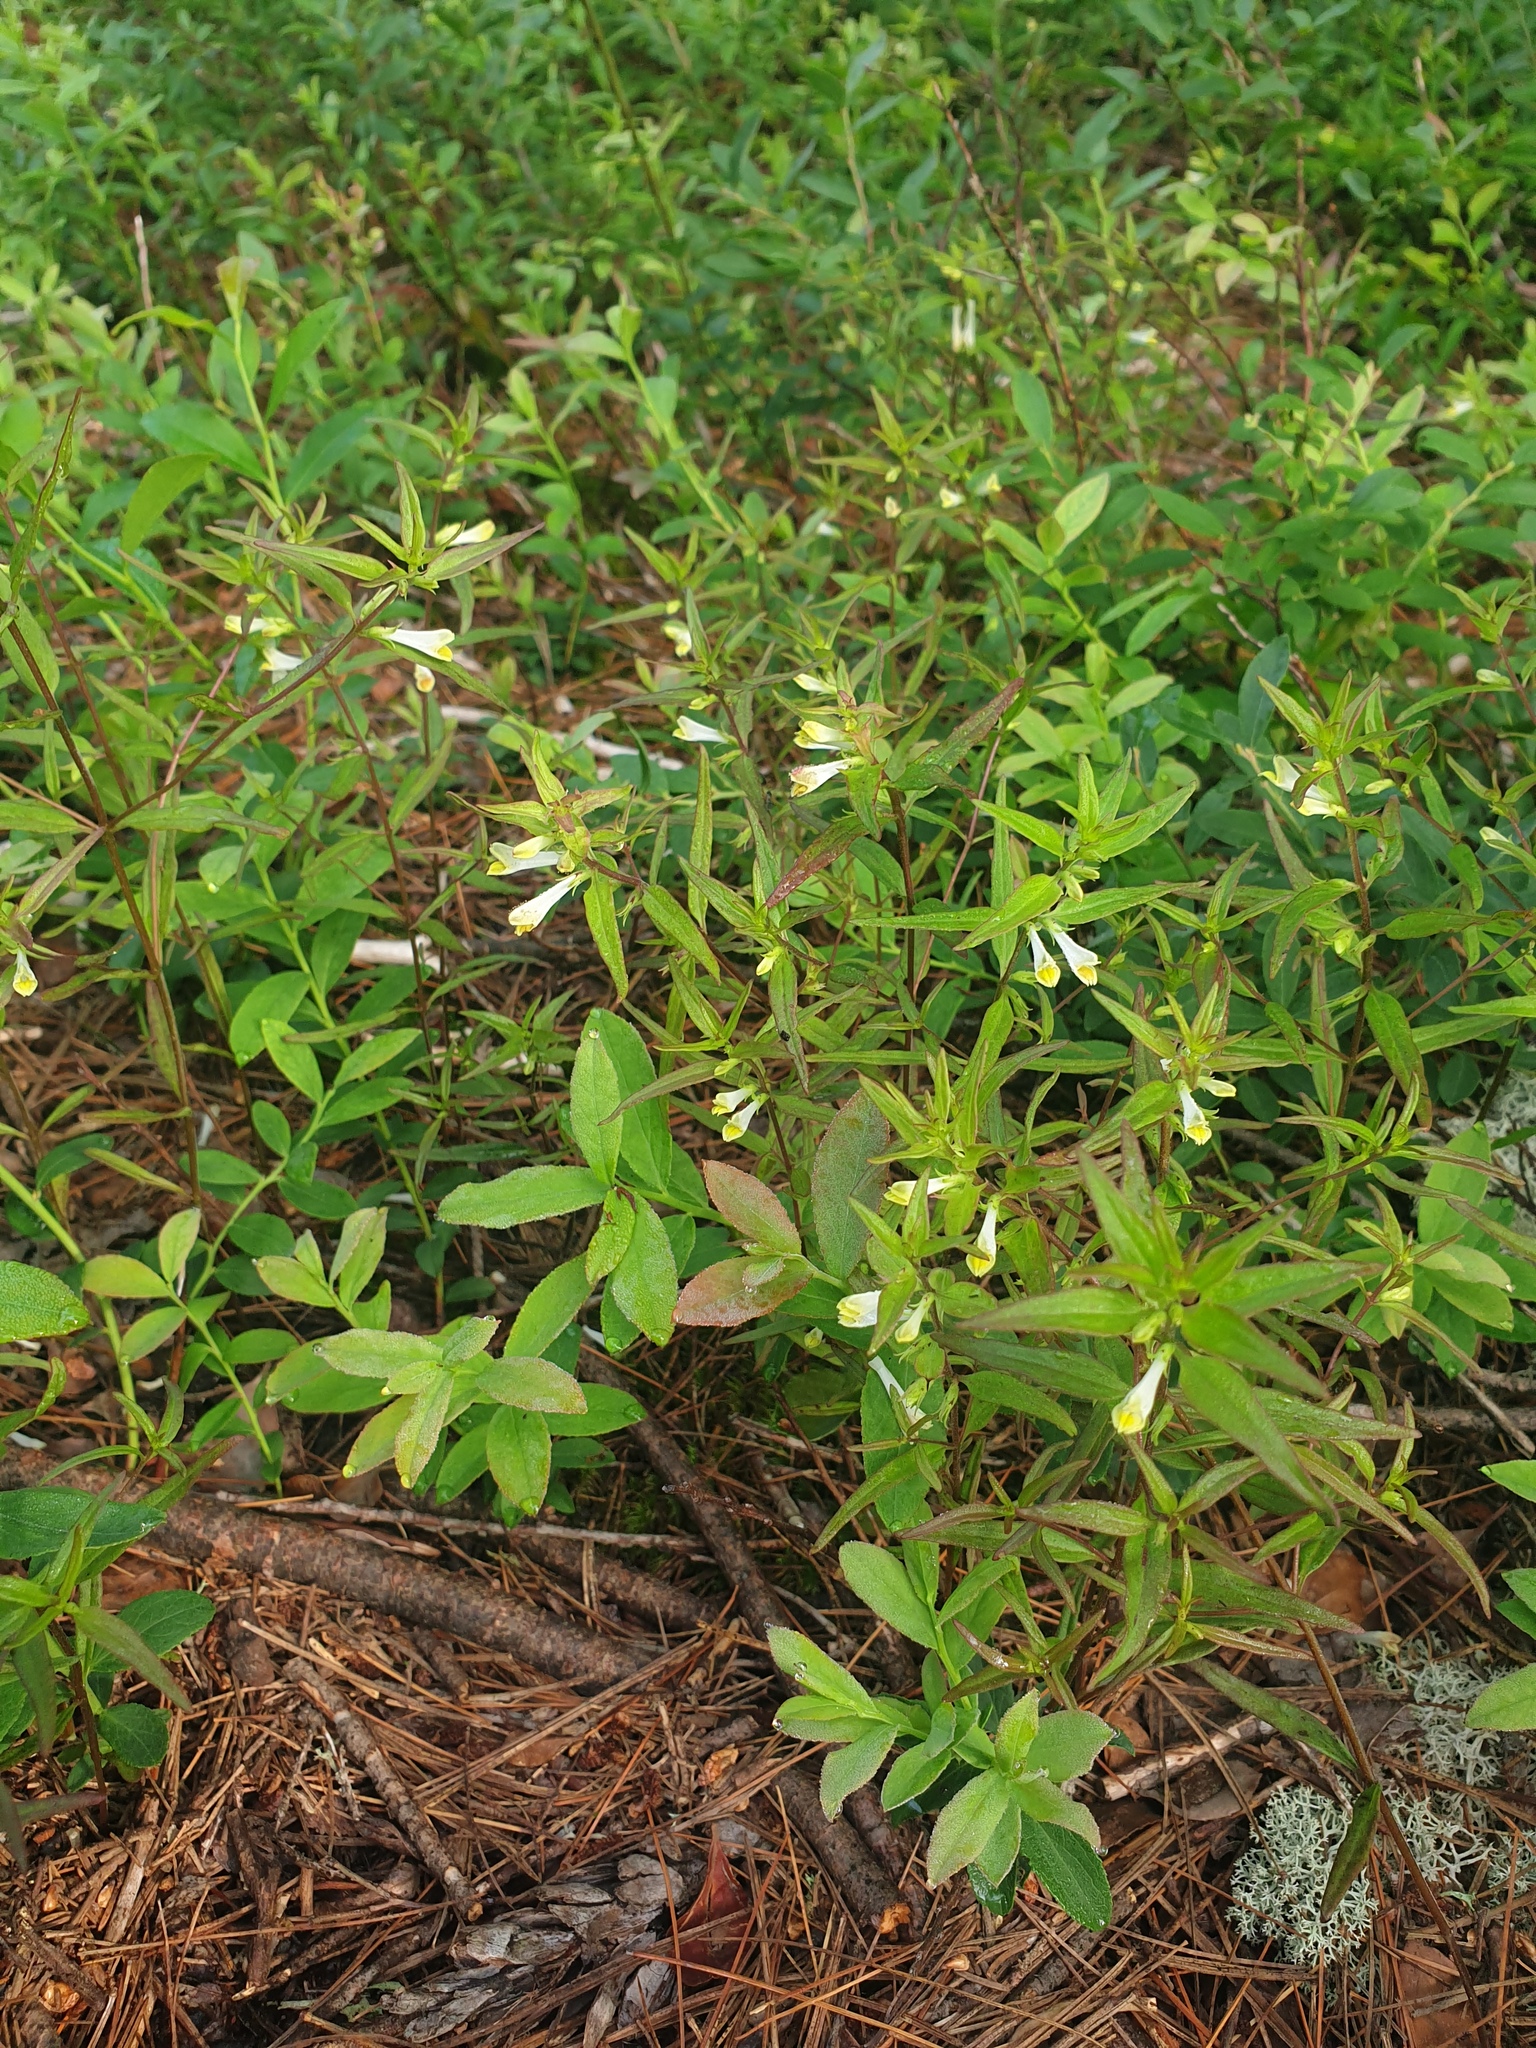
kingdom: Plantae
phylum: Tracheophyta
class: Magnoliopsida
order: Lamiales
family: Orobanchaceae
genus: Melampyrum
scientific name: Melampyrum lineare
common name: American cow-wheat
